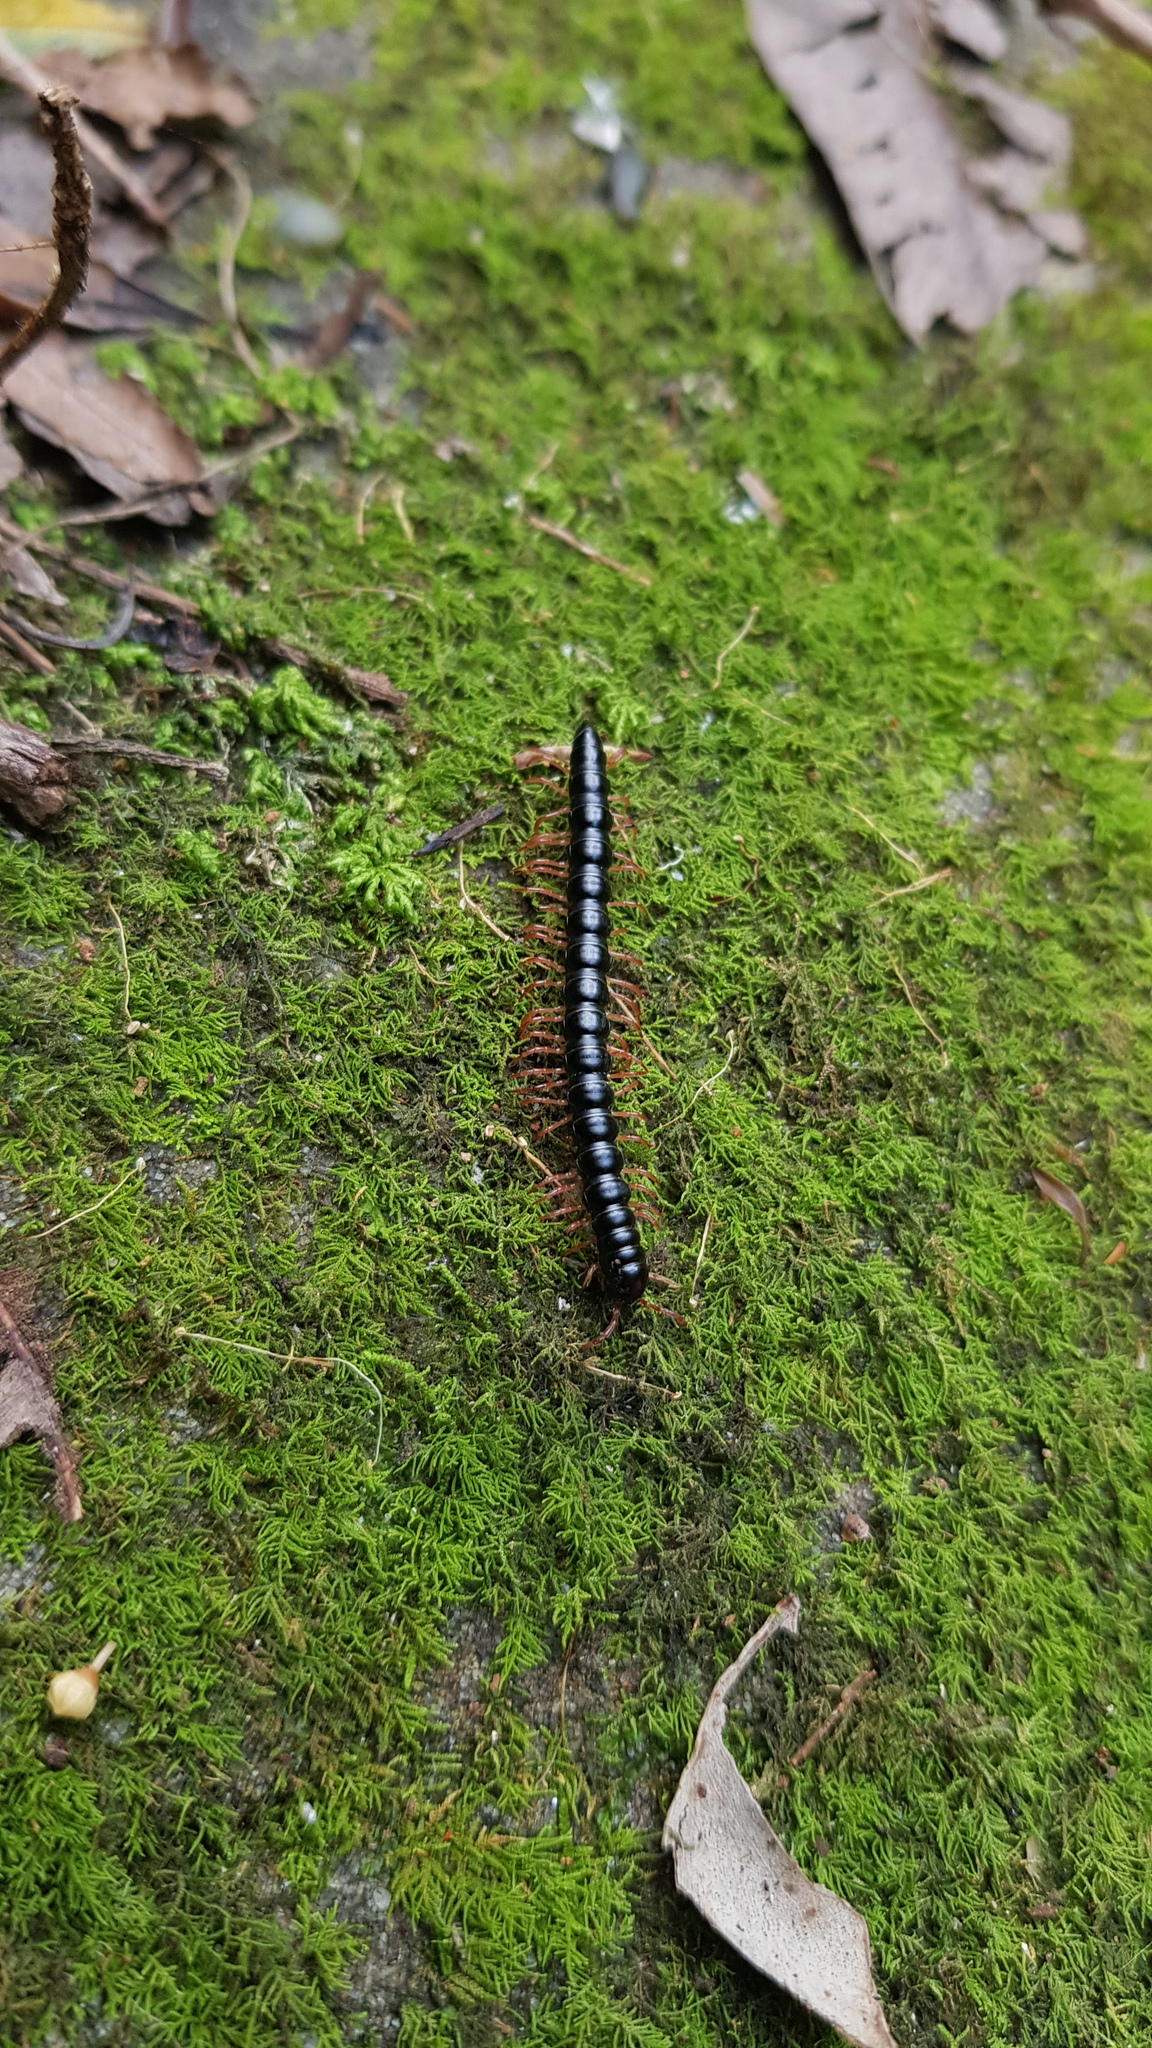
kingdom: Animalia
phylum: Arthropoda
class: Diplopoda
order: Polydesmida
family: Paradoxosomatidae
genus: Heterocladosoma
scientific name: Heterocladosoma
